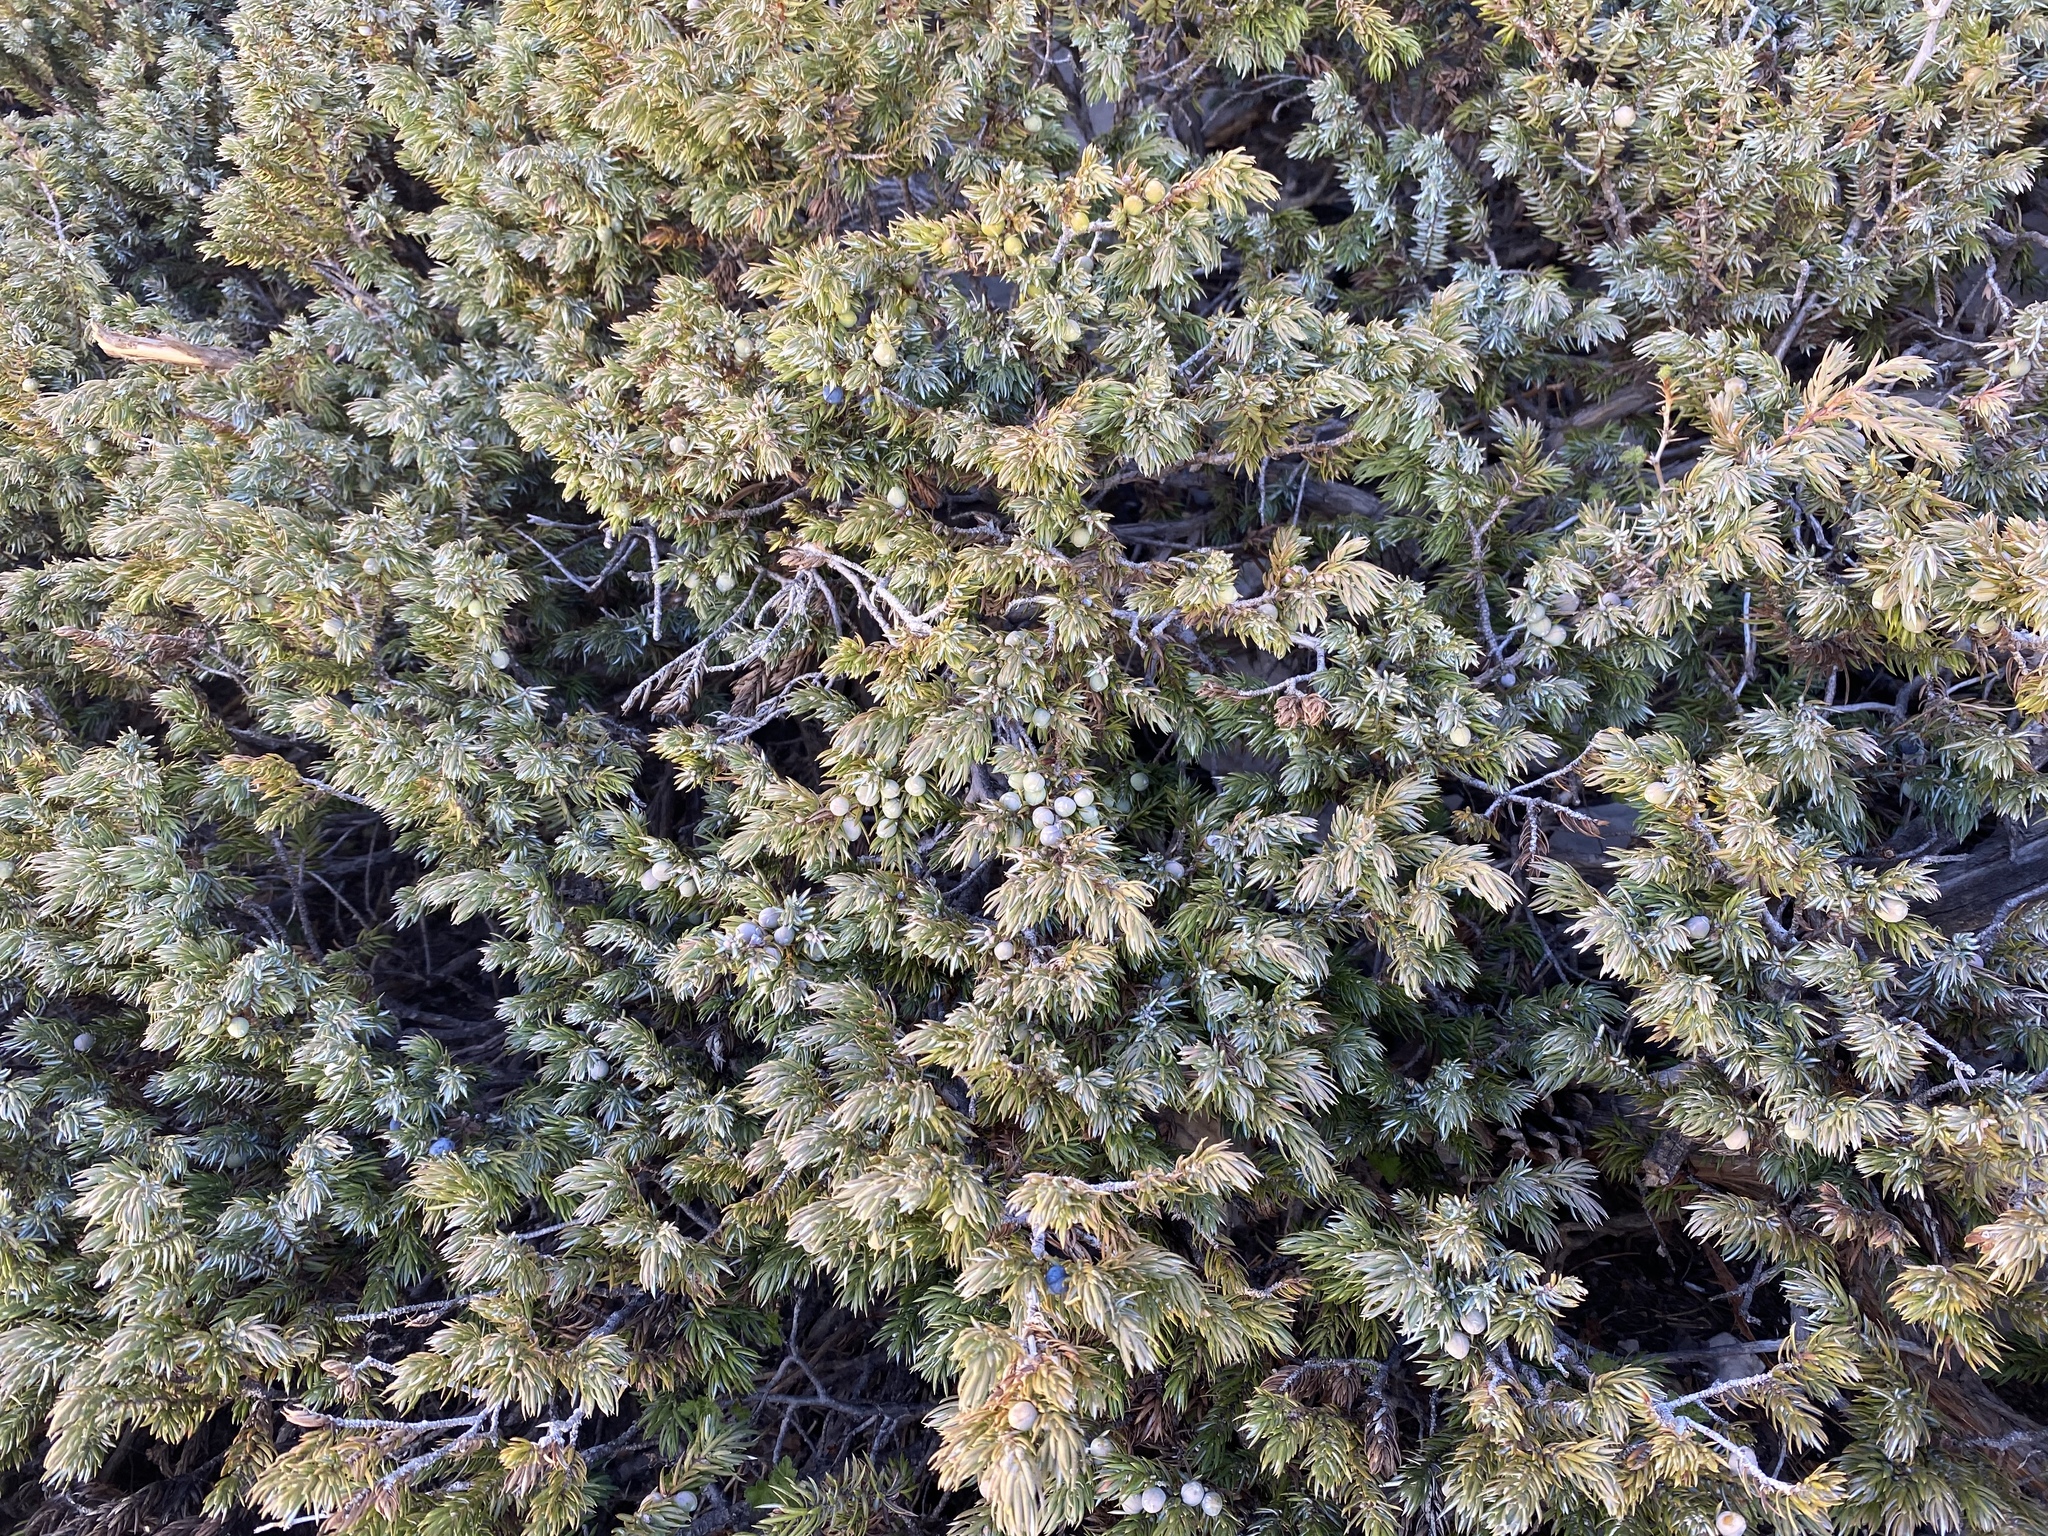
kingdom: Plantae
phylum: Tracheophyta
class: Pinopsida
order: Pinales
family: Cupressaceae
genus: Juniperus
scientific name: Juniperus communis
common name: Common juniper
